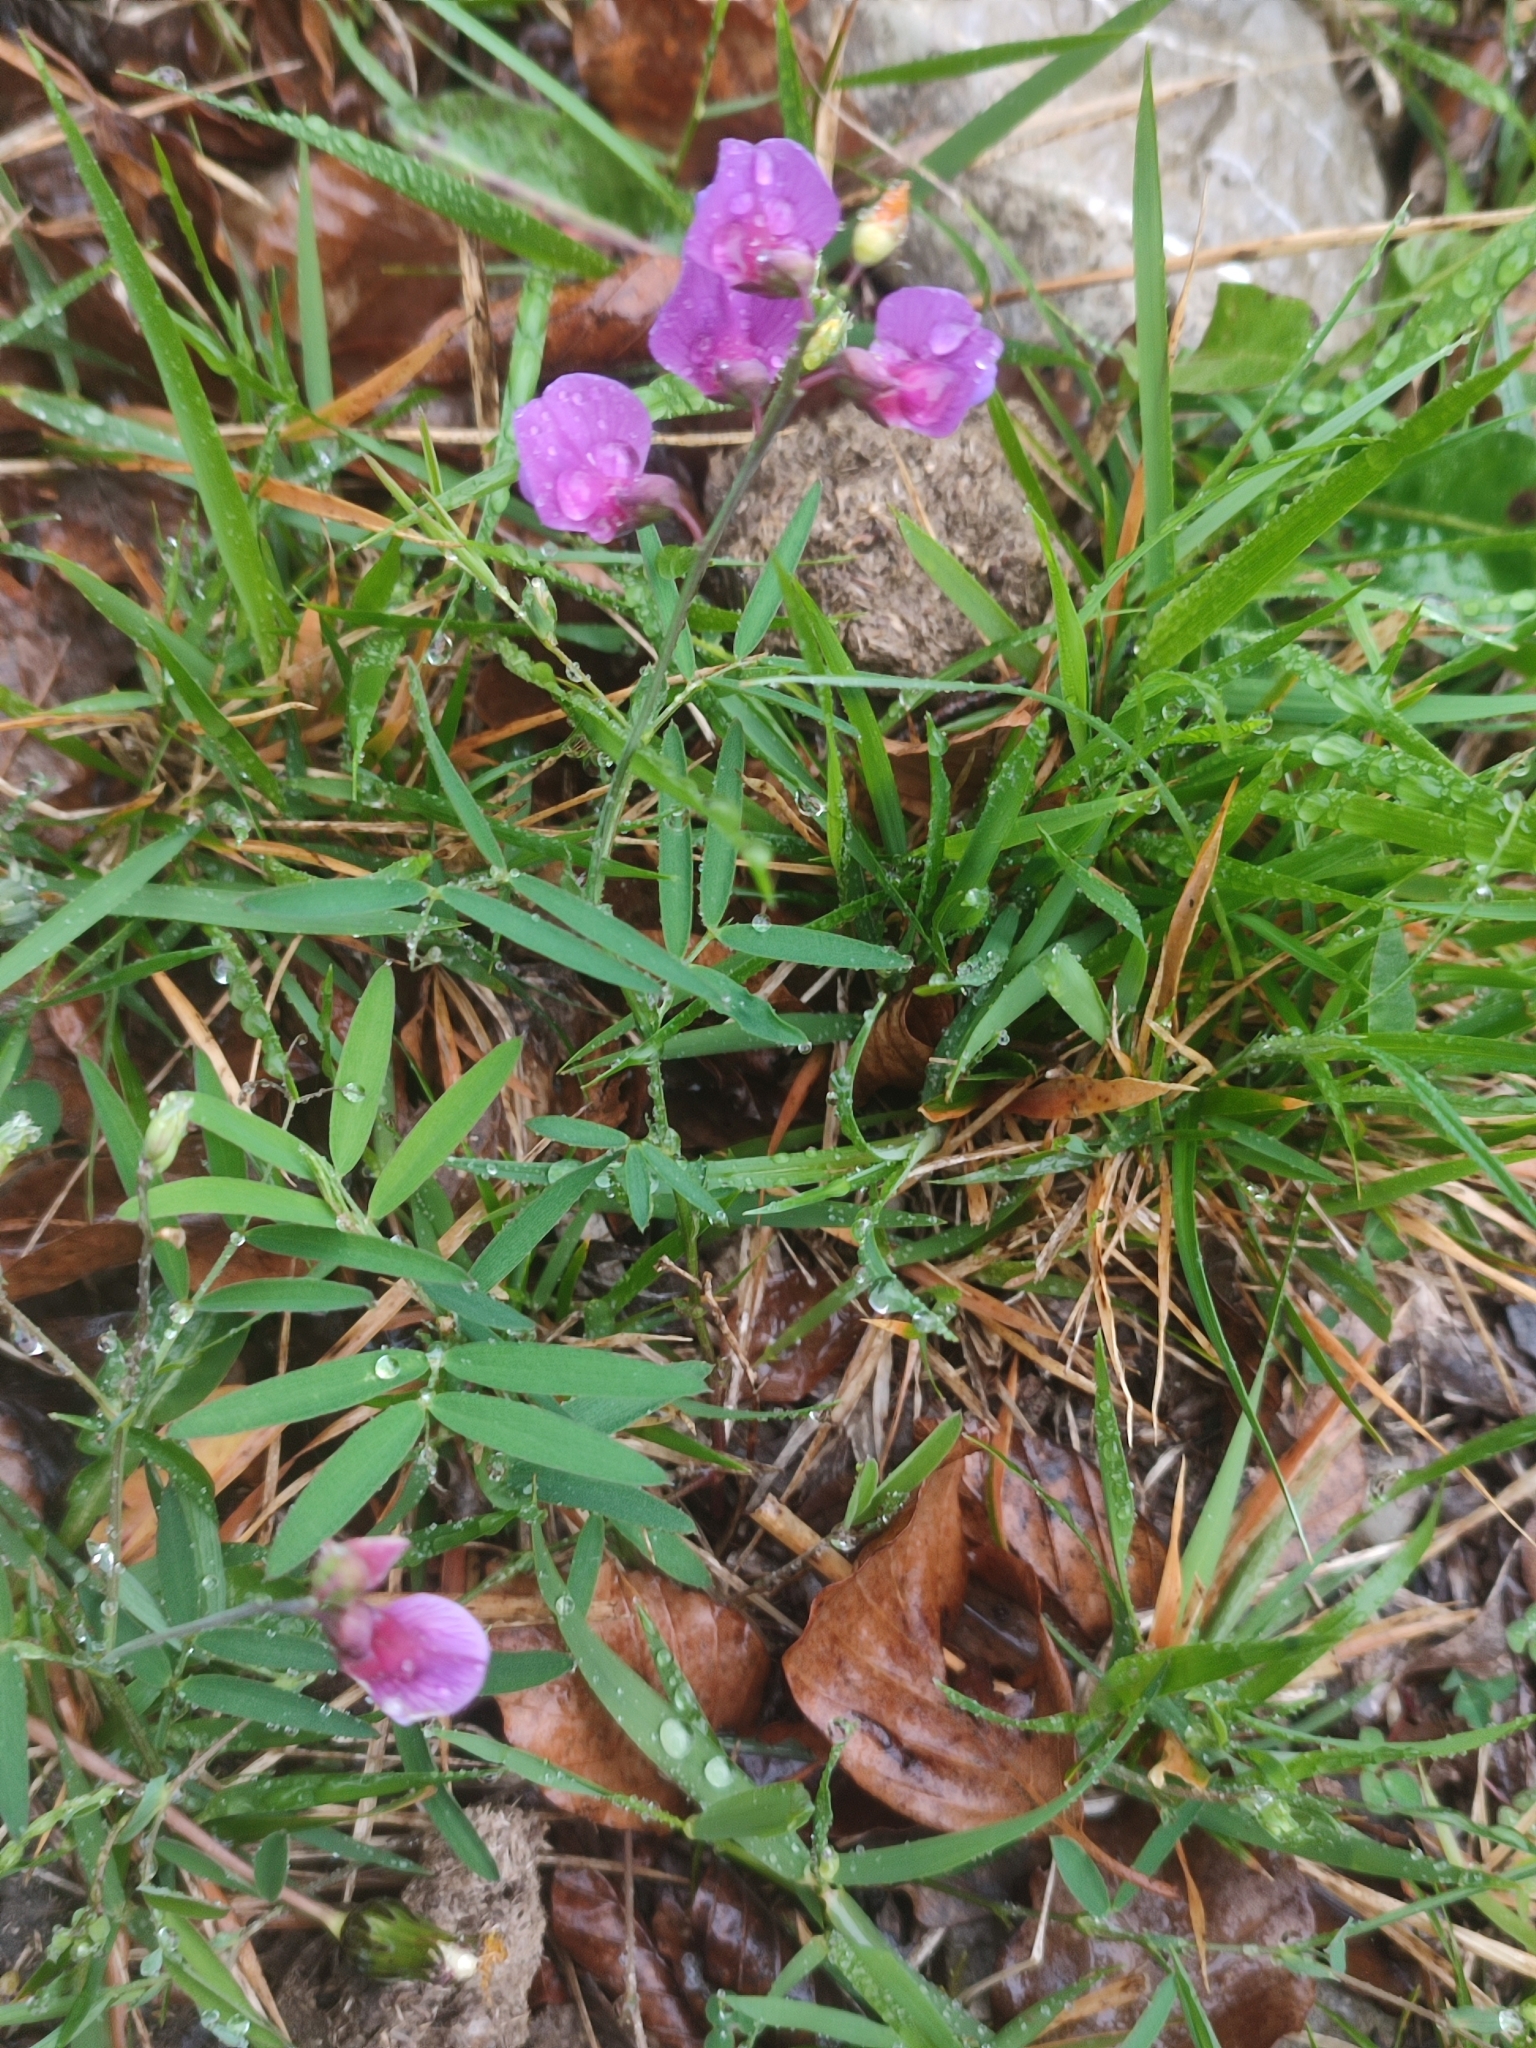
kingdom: Plantae
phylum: Tracheophyta
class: Magnoliopsida
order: Fabales
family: Fabaceae
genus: Lathyrus
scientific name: Lathyrus linifolius
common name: Bitter-vetch
